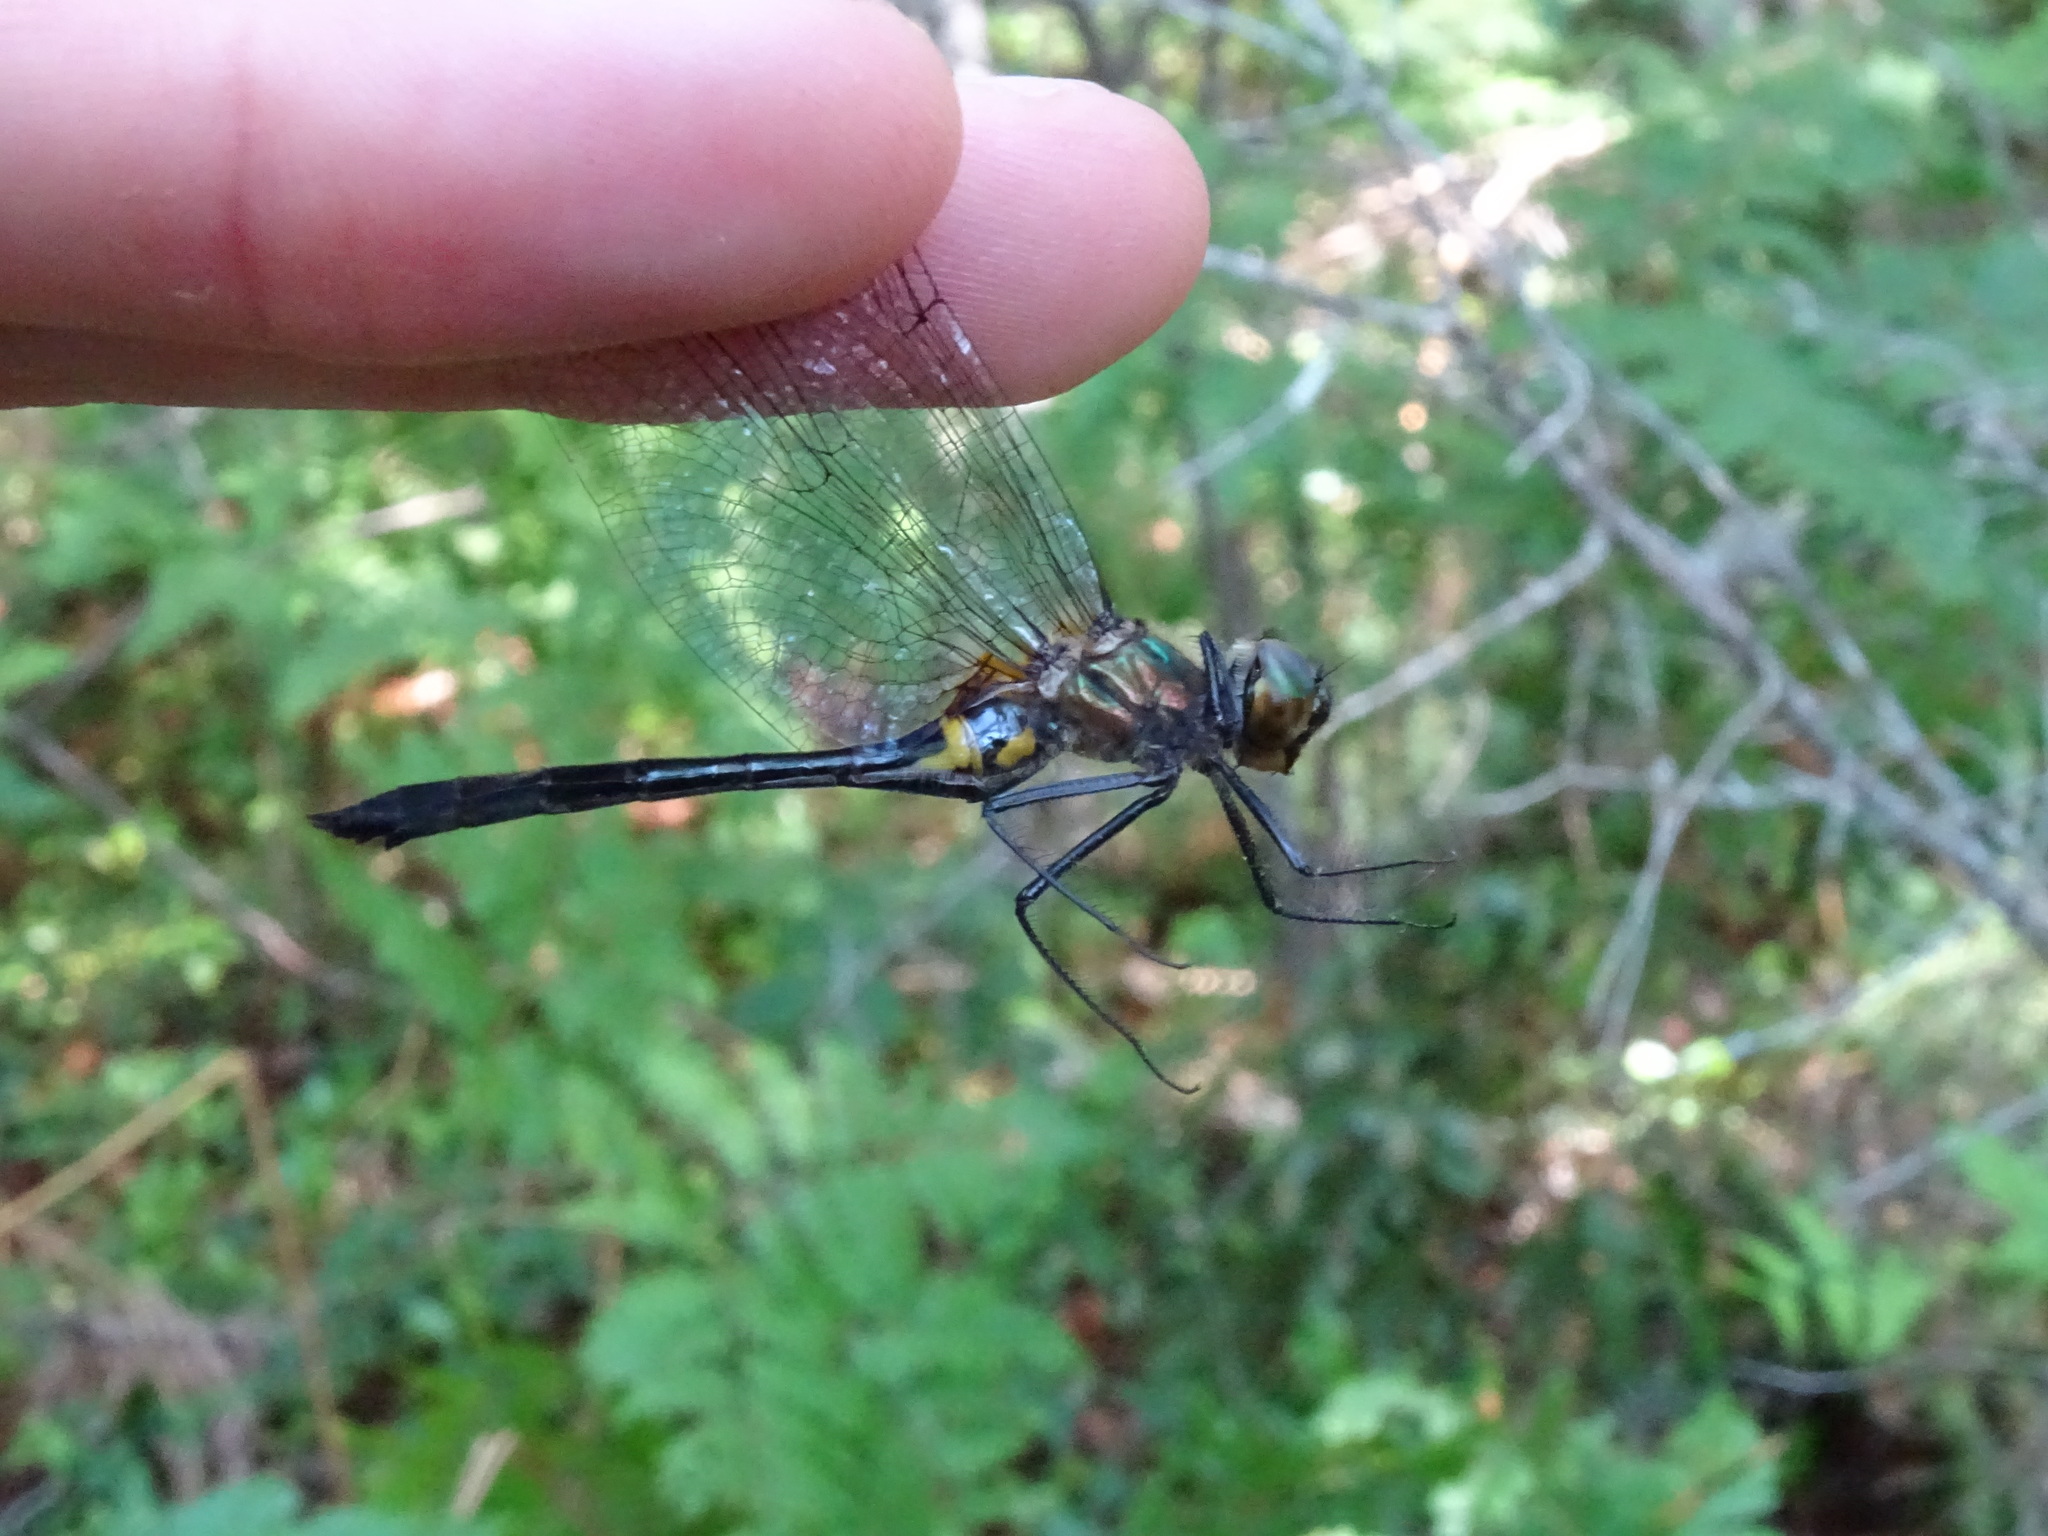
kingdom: Animalia
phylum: Arthropoda
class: Insecta
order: Odonata
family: Corduliidae
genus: Dorocordulia
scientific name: Dorocordulia libera
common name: Racket-tailed emerald
